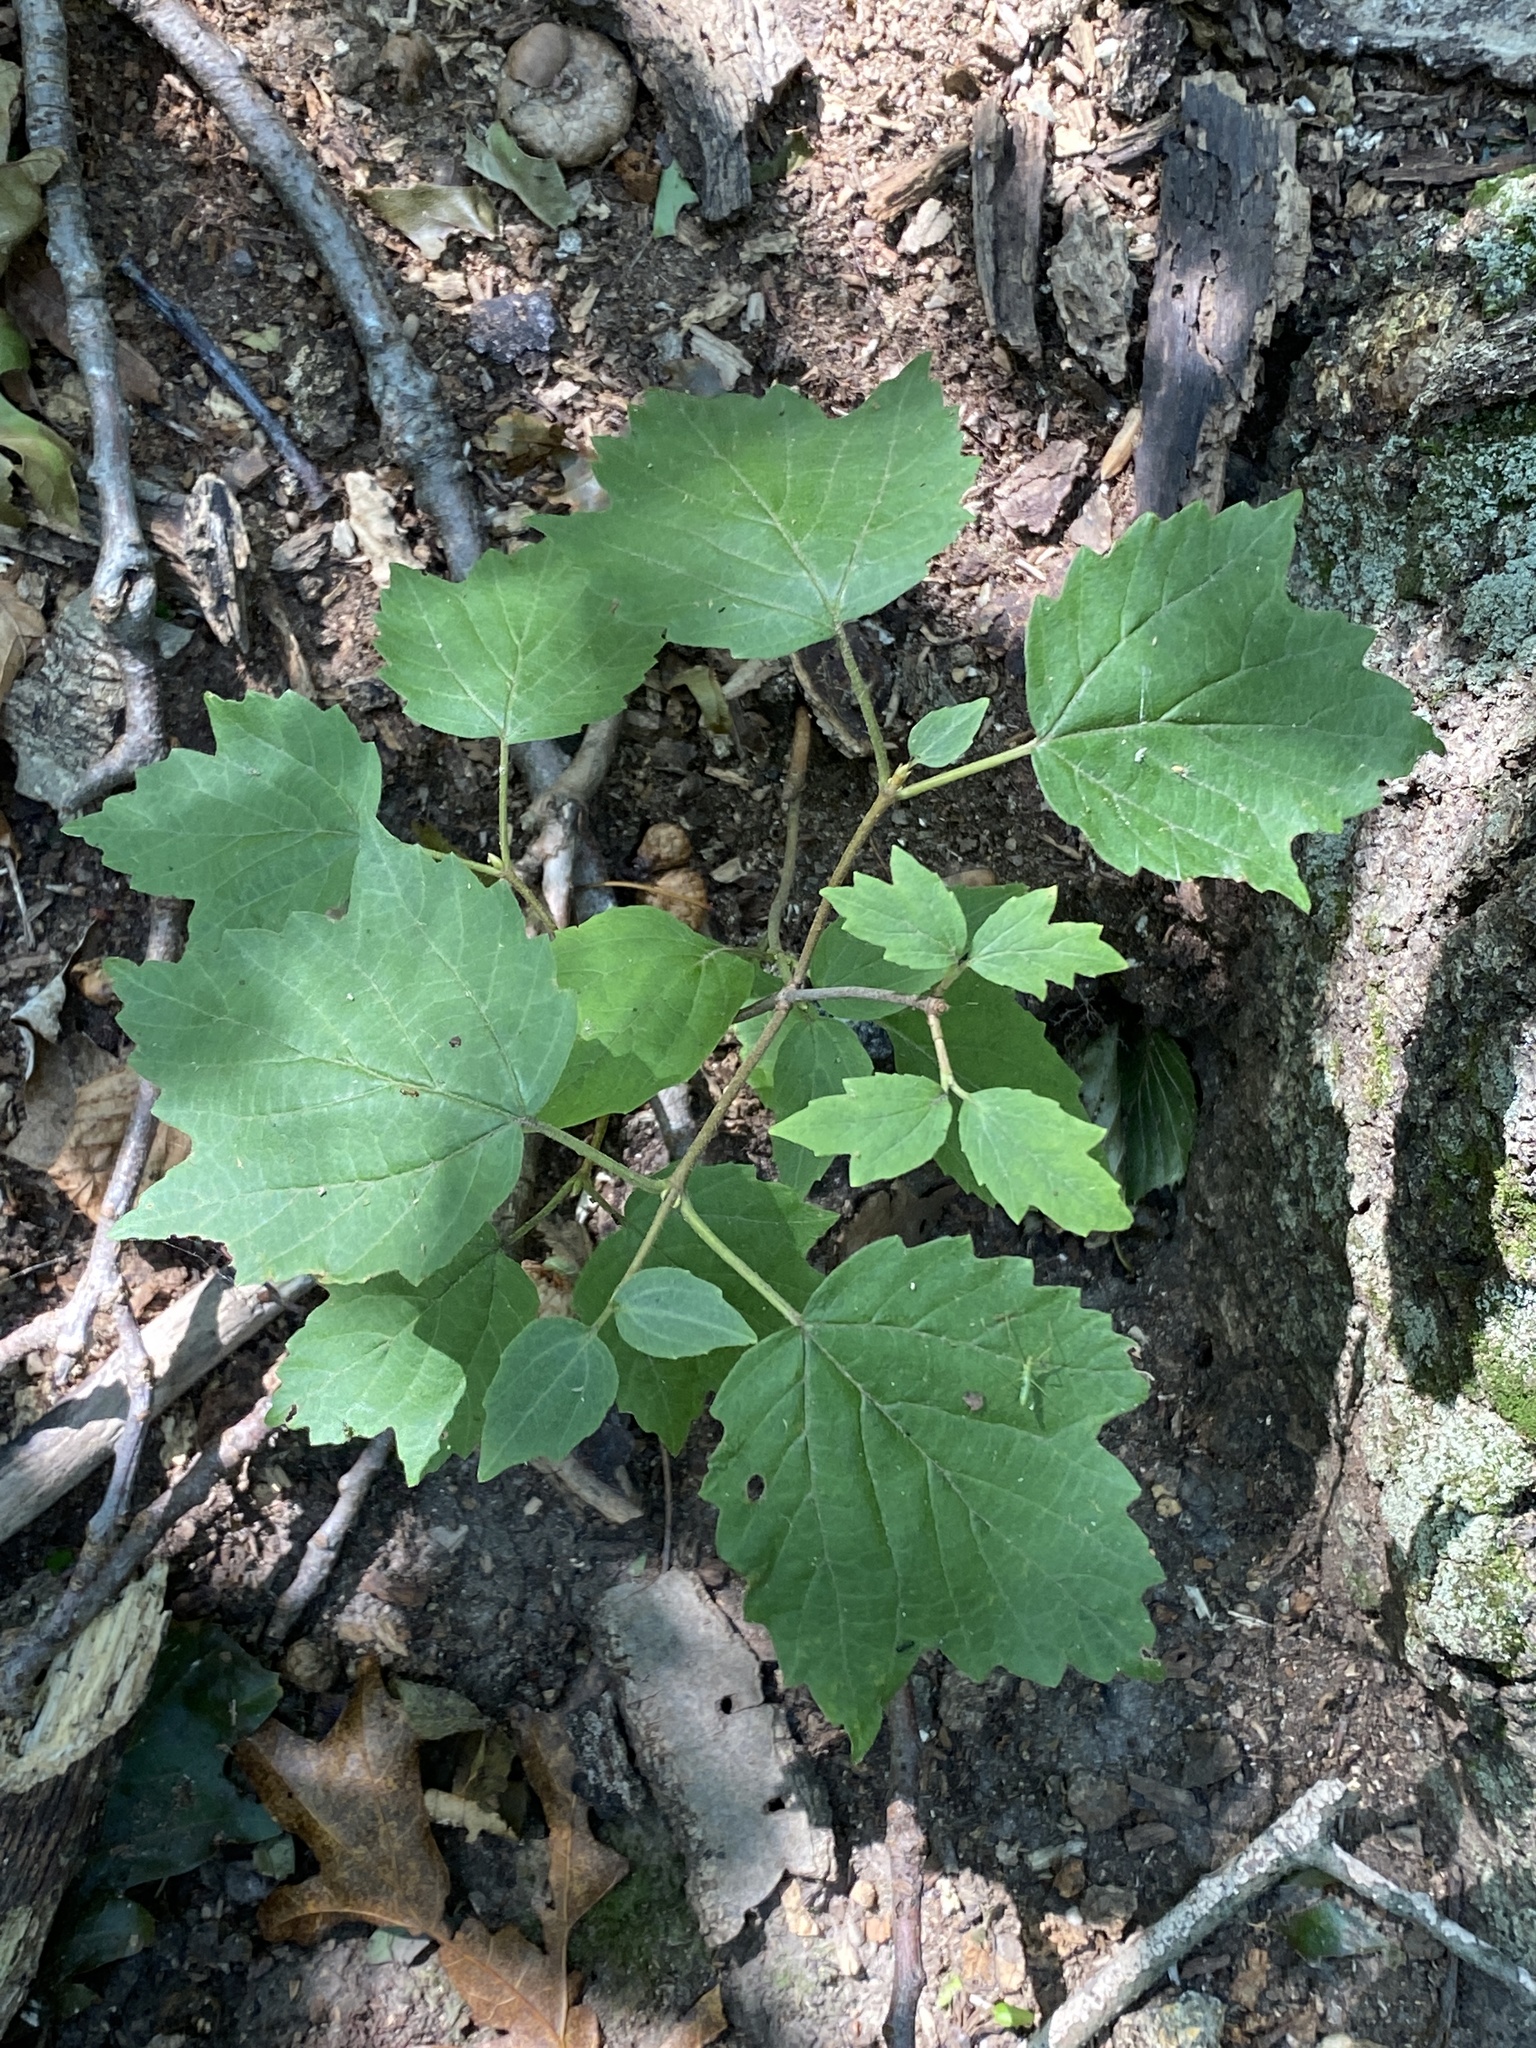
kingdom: Plantae
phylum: Tracheophyta
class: Magnoliopsida
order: Dipsacales
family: Viburnaceae
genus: Viburnum
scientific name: Viburnum acerifolium
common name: Dockmackie
